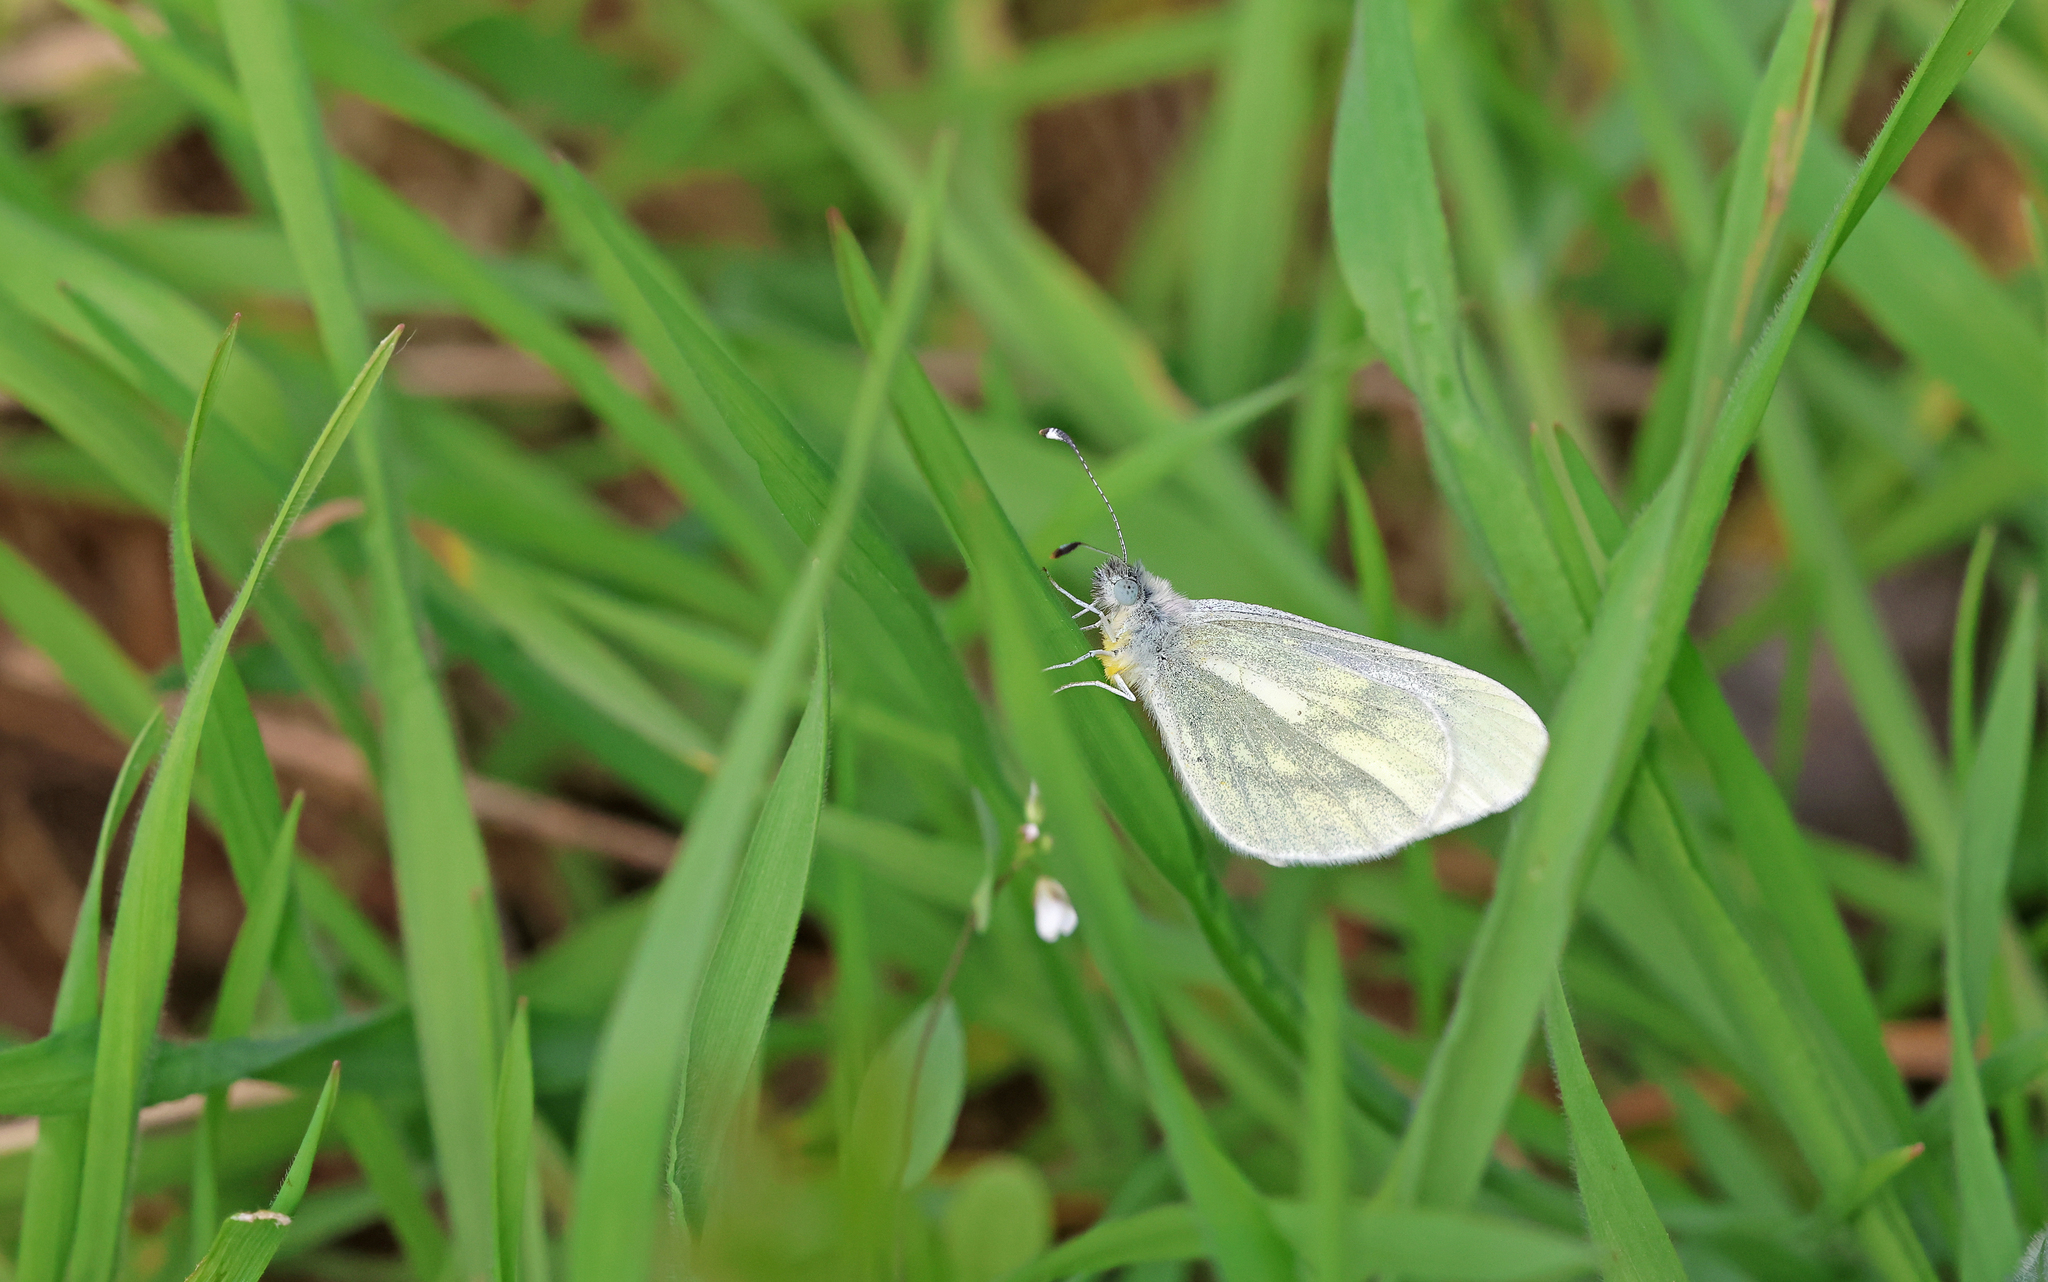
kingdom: Animalia
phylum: Arthropoda
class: Insecta
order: Lepidoptera
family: Pieridae
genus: Leptidea
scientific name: Leptidea
